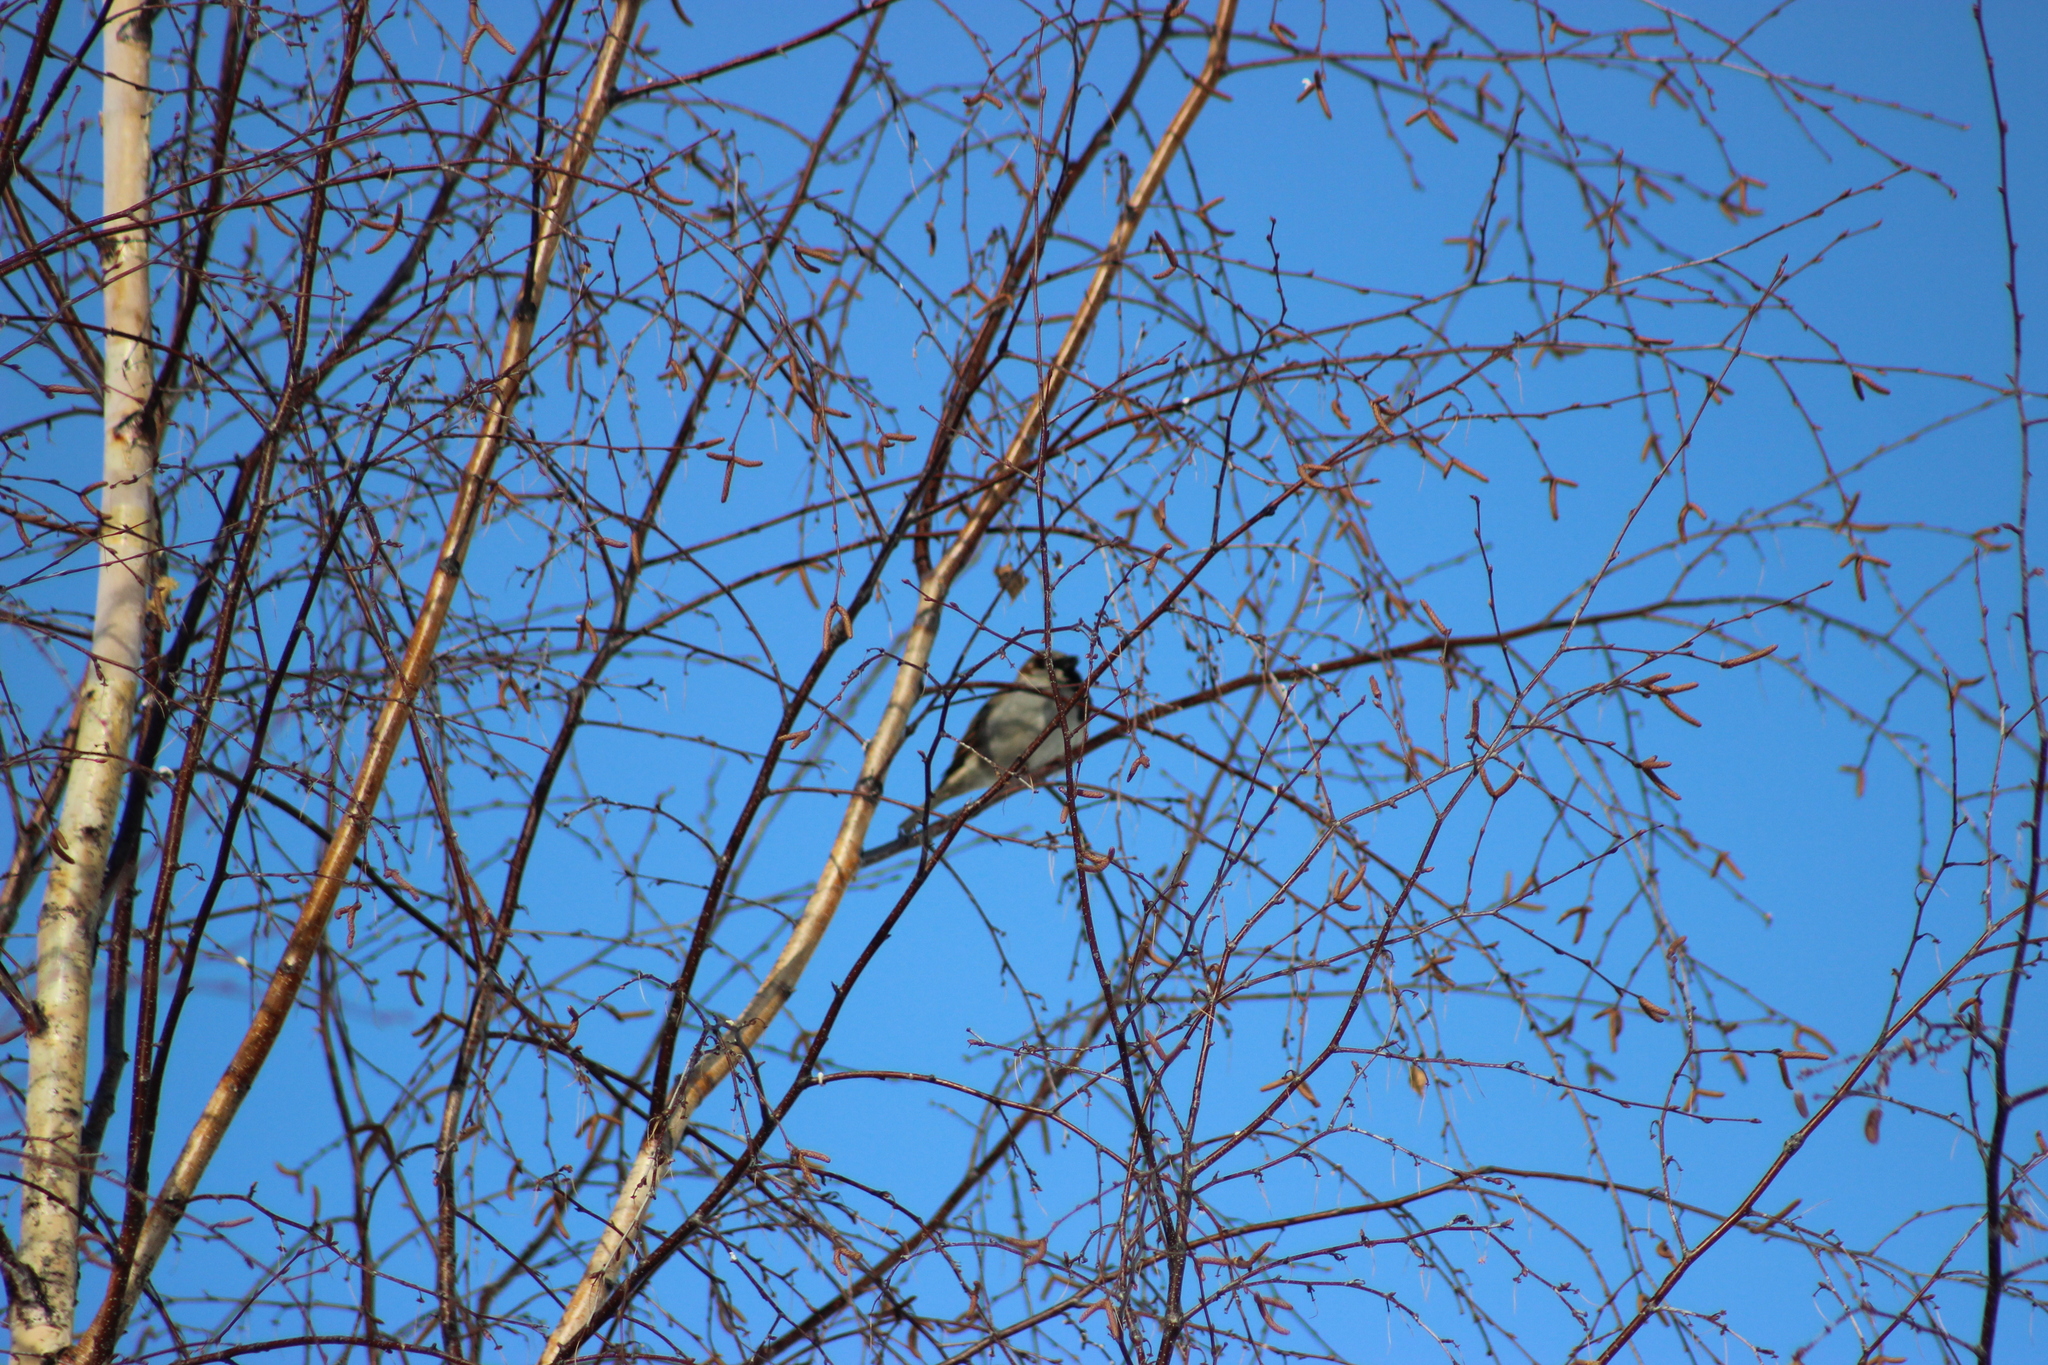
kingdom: Animalia
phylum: Chordata
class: Aves
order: Passeriformes
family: Passeridae
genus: Passer
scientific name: Passer domesticus
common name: House sparrow
